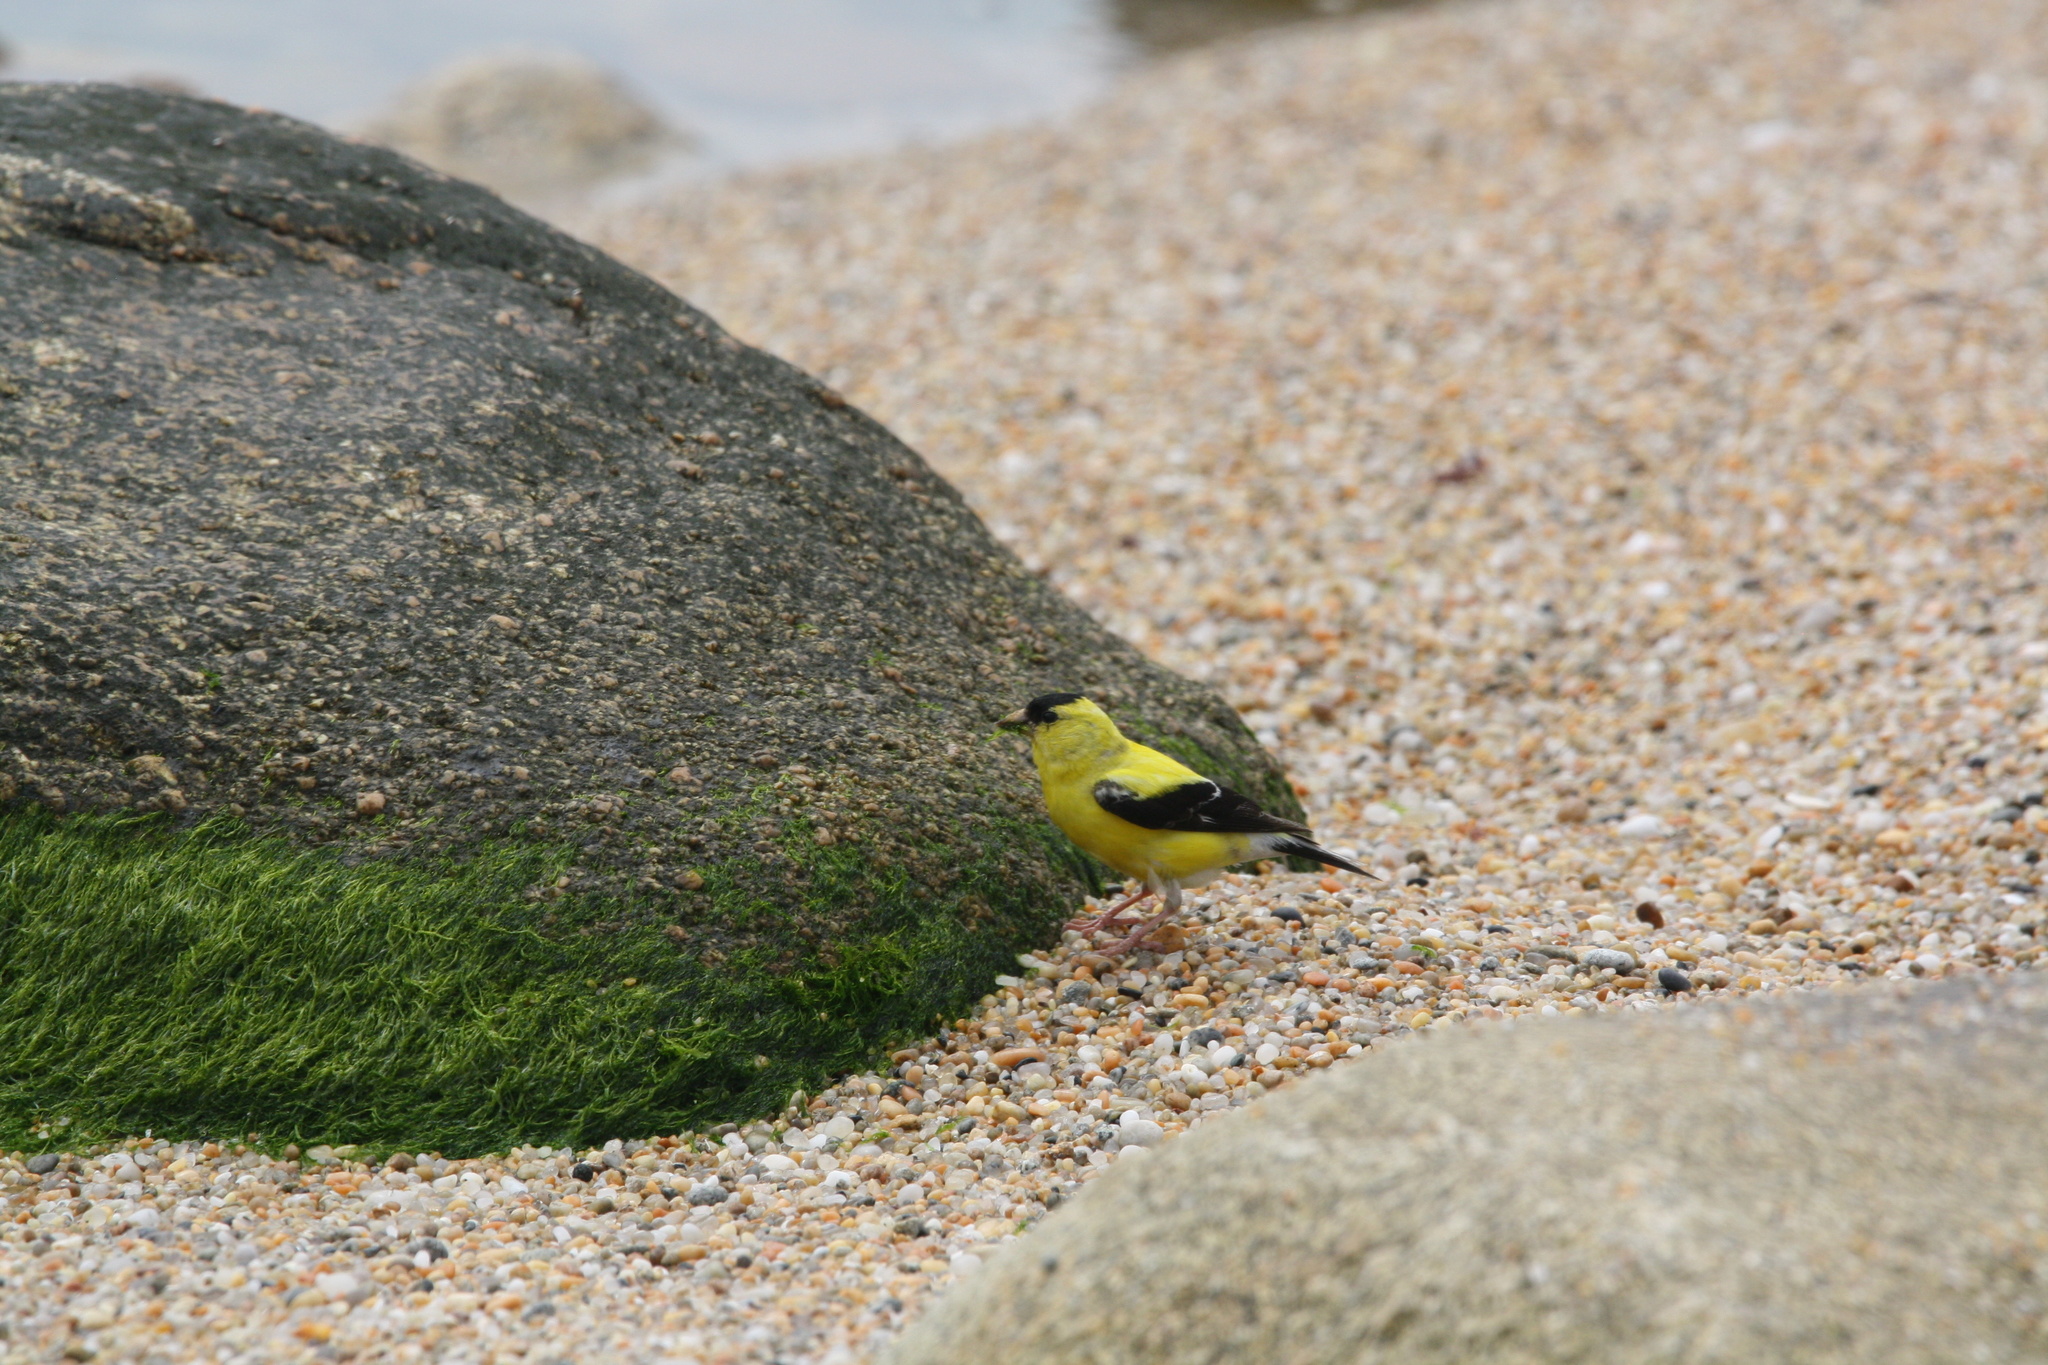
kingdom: Animalia
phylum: Chordata
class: Aves
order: Passeriformes
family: Fringillidae
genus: Spinus
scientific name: Spinus tristis
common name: American goldfinch
